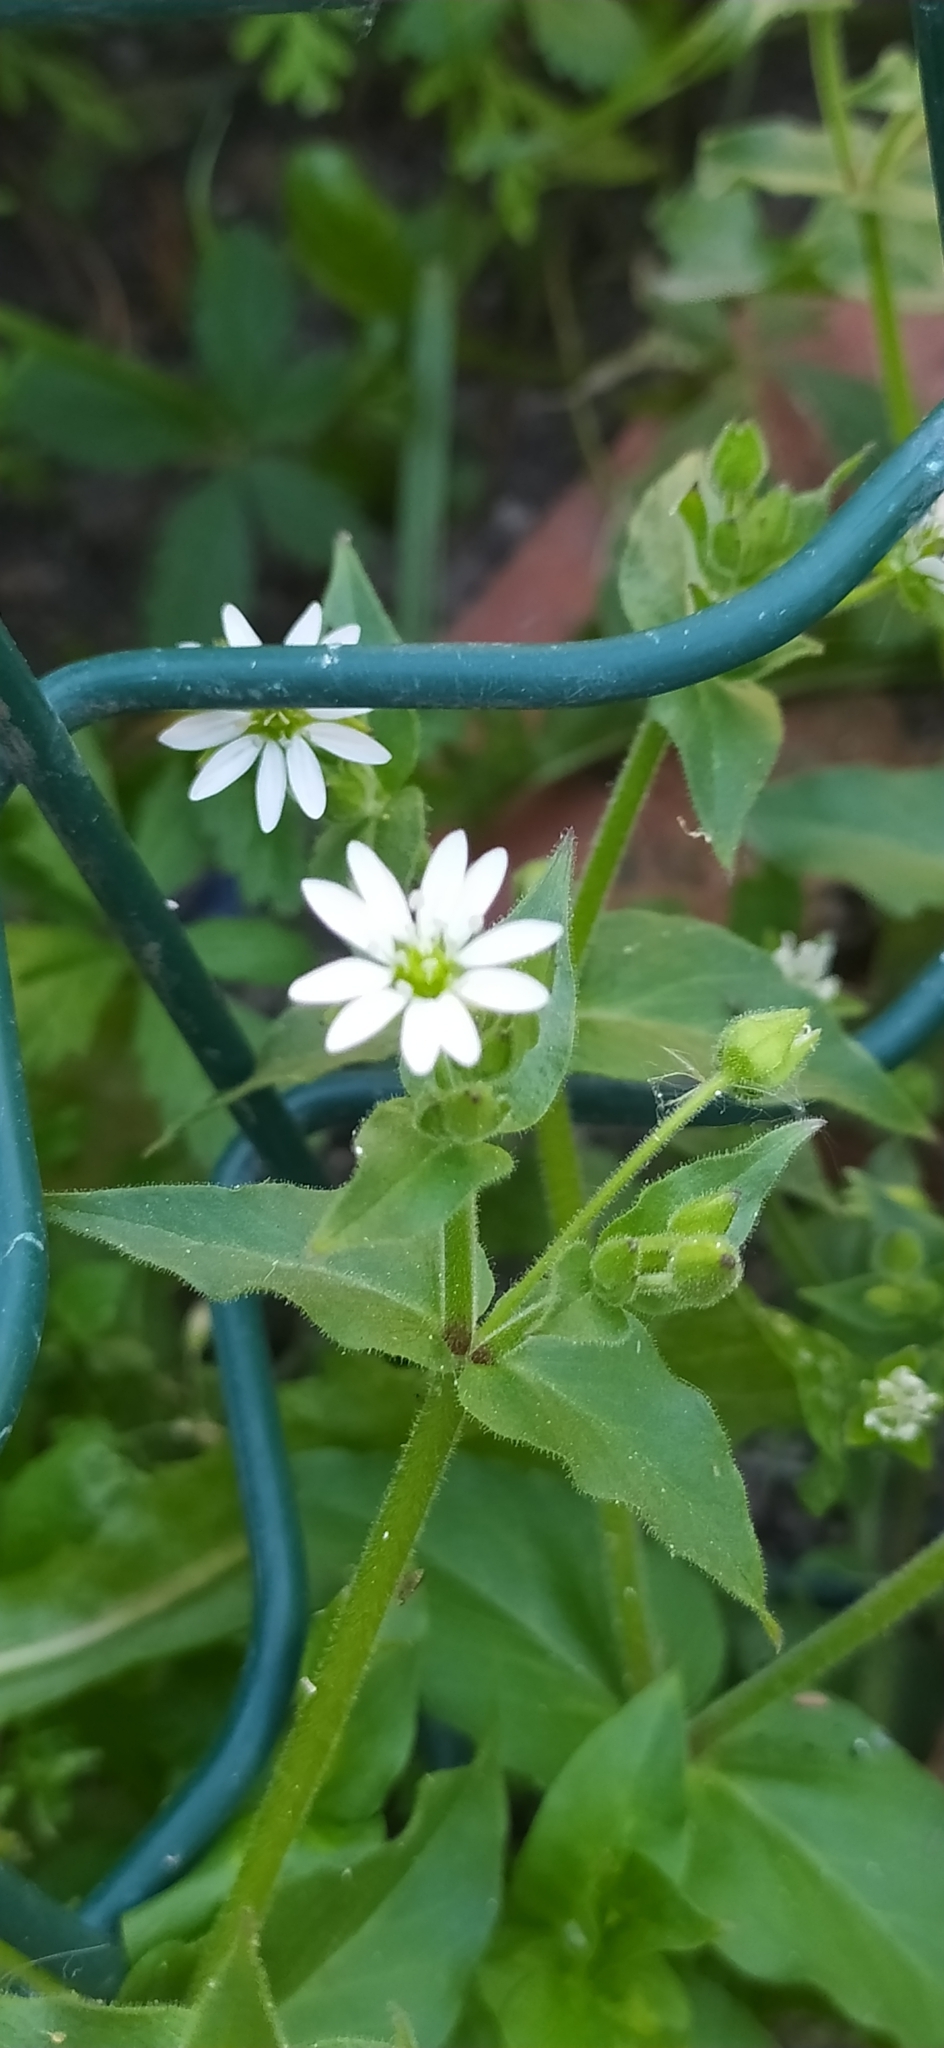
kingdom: Plantae
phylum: Tracheophyta
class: Magnoliopsida
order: Caryophyllales
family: Caryophyllaceae
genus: Stellaria
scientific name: Stellaria aquatica
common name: Water chickweed
